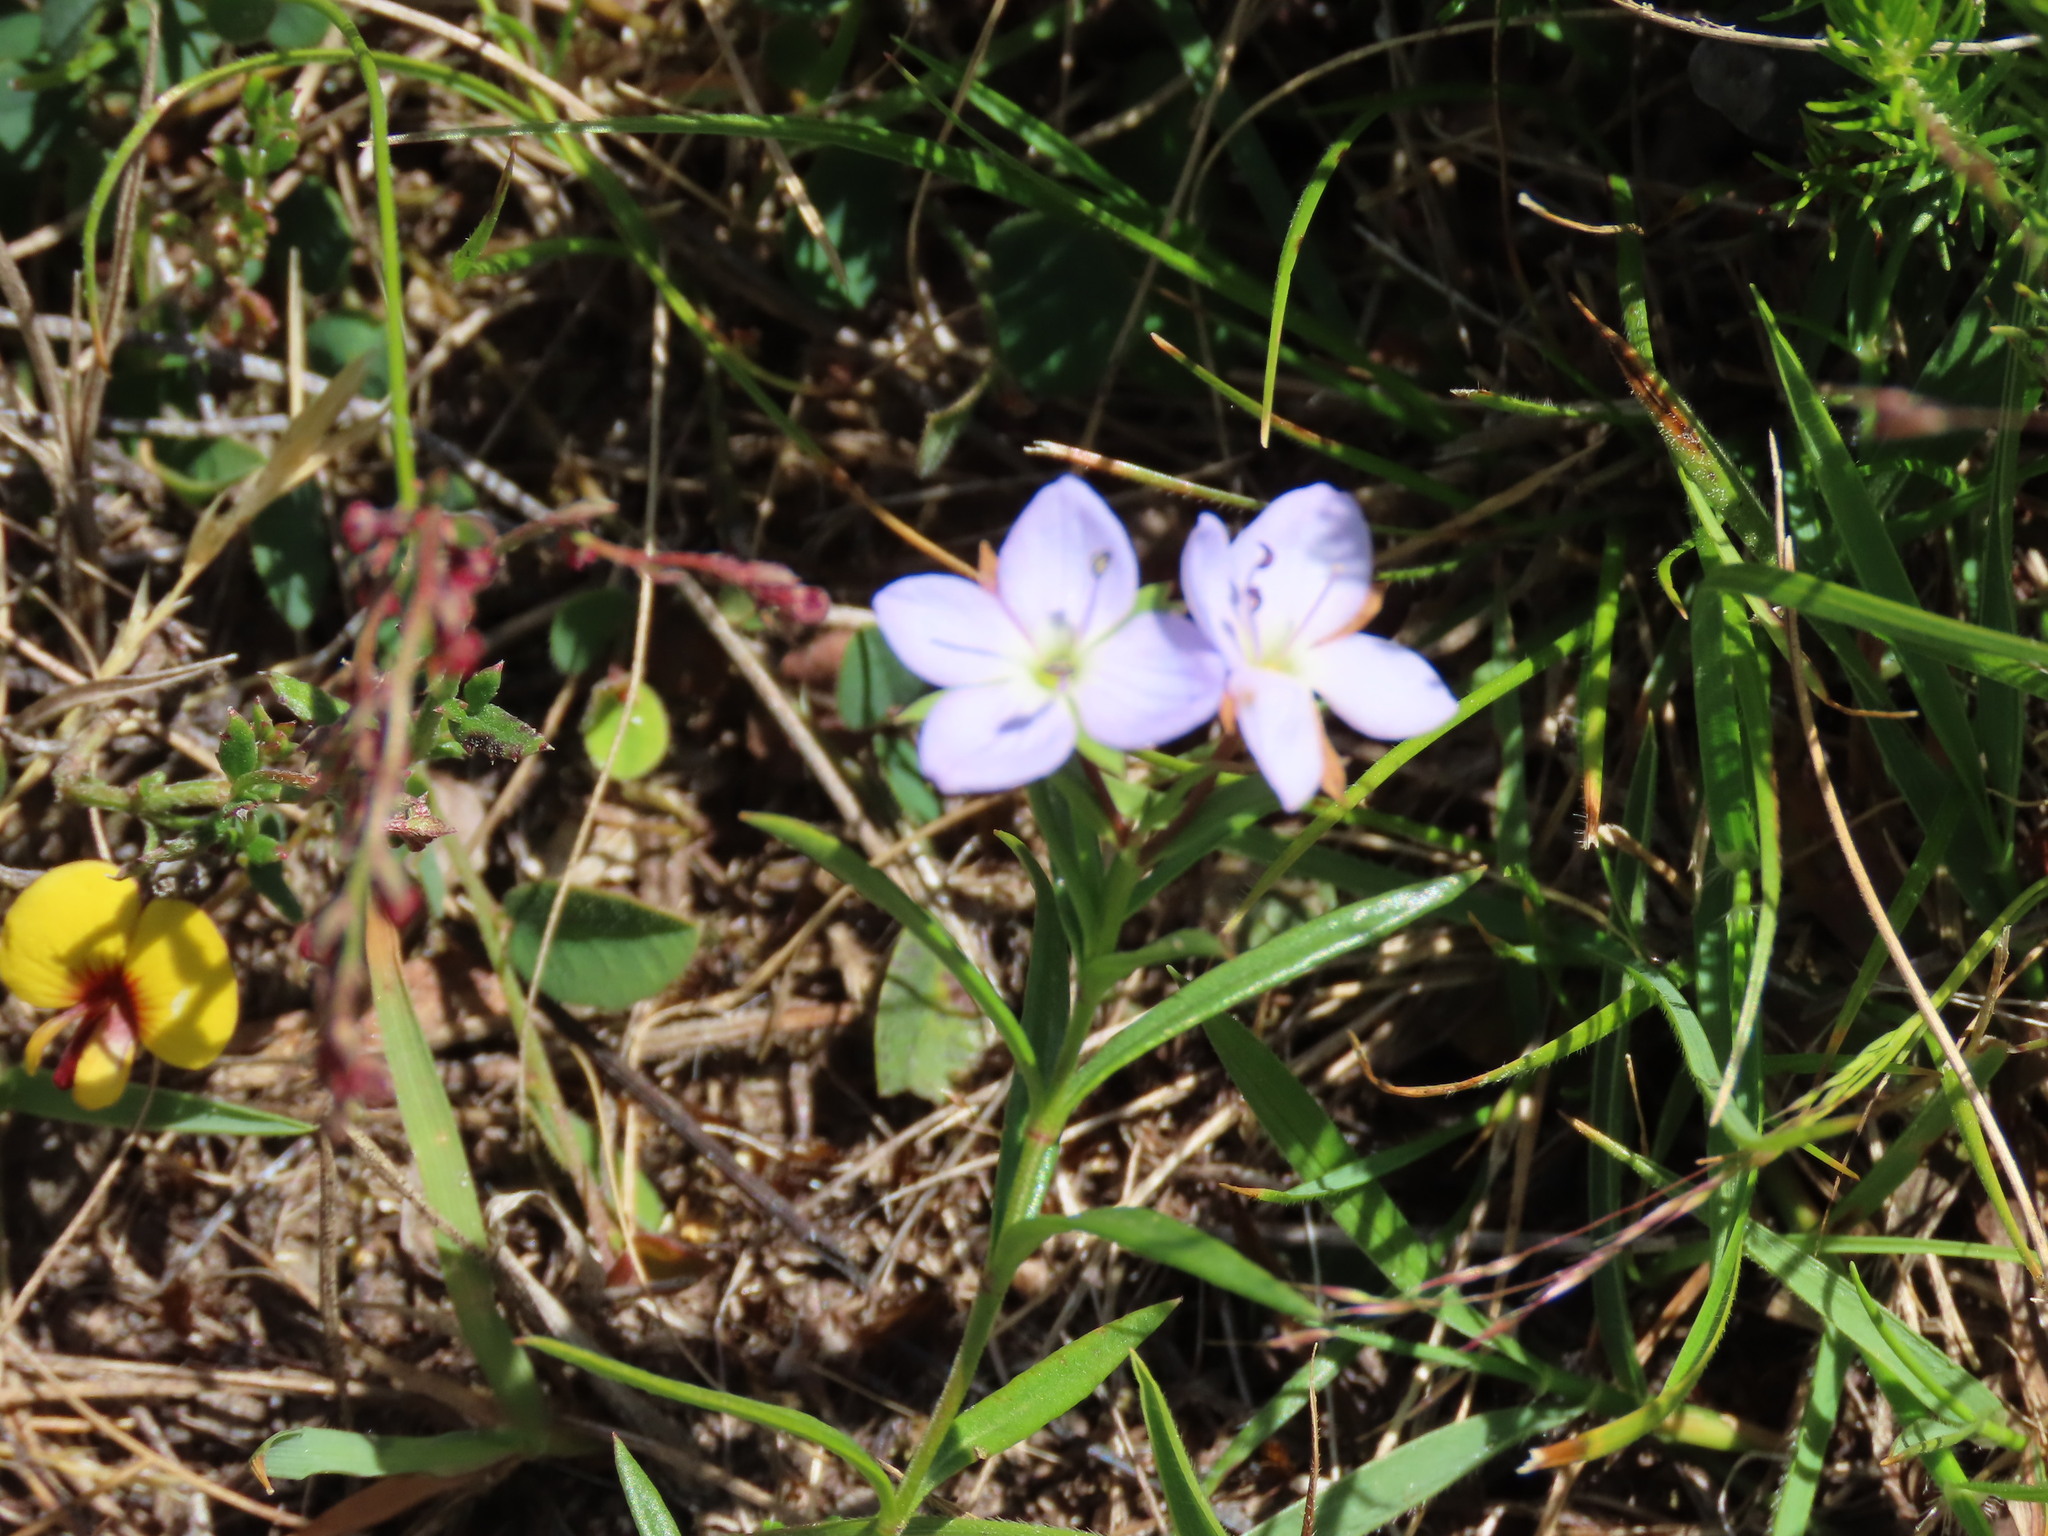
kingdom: Plantae
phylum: Tracheophyta
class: Magnoliopsida
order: Lamiales
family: Plantaginaceae
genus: Veronica
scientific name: Veronica gracilis
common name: Slender speedwell
